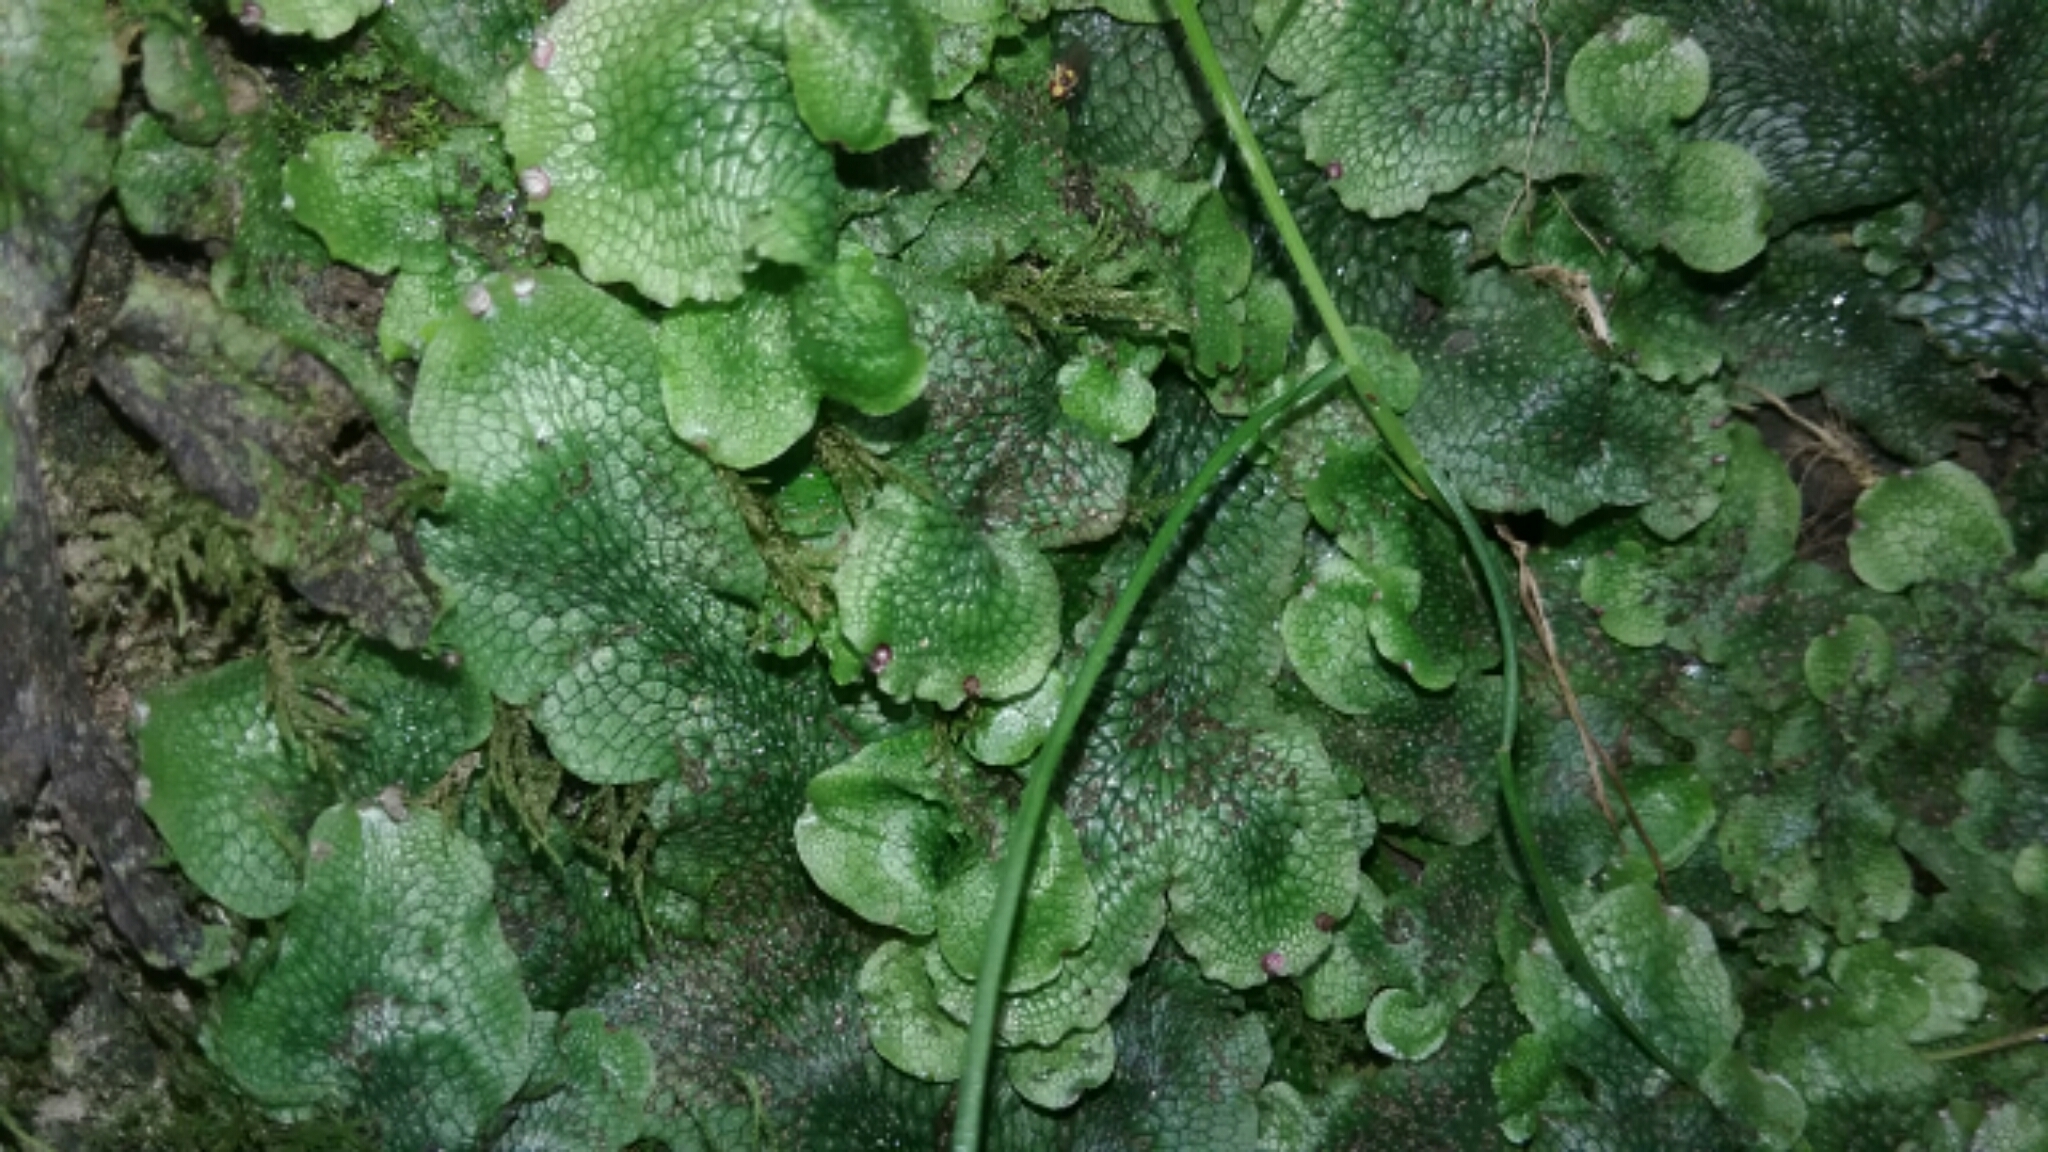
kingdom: Plantae
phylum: Marchantiophyta
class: Marchantiopsida
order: Marchantiales
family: Conocephalaceae
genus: Conocephalum
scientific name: Conocephalum salebrosum
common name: Cat-tongue liverwort
